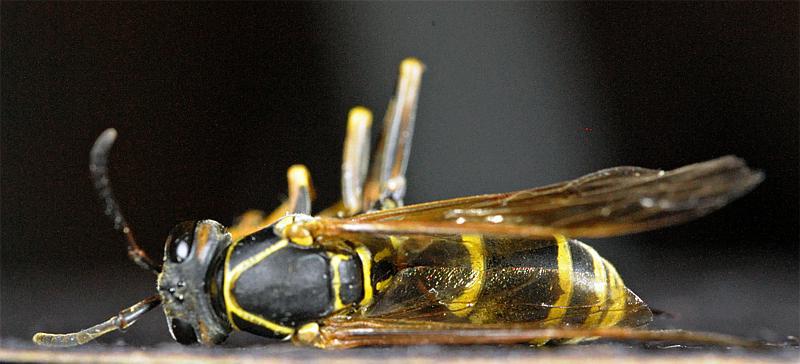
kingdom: Animalia
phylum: Arthropoda
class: Insecta
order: Hymenoptera
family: Eumenidae
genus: Polistes
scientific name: Polistes fuscatus
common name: Dark paper wasp
